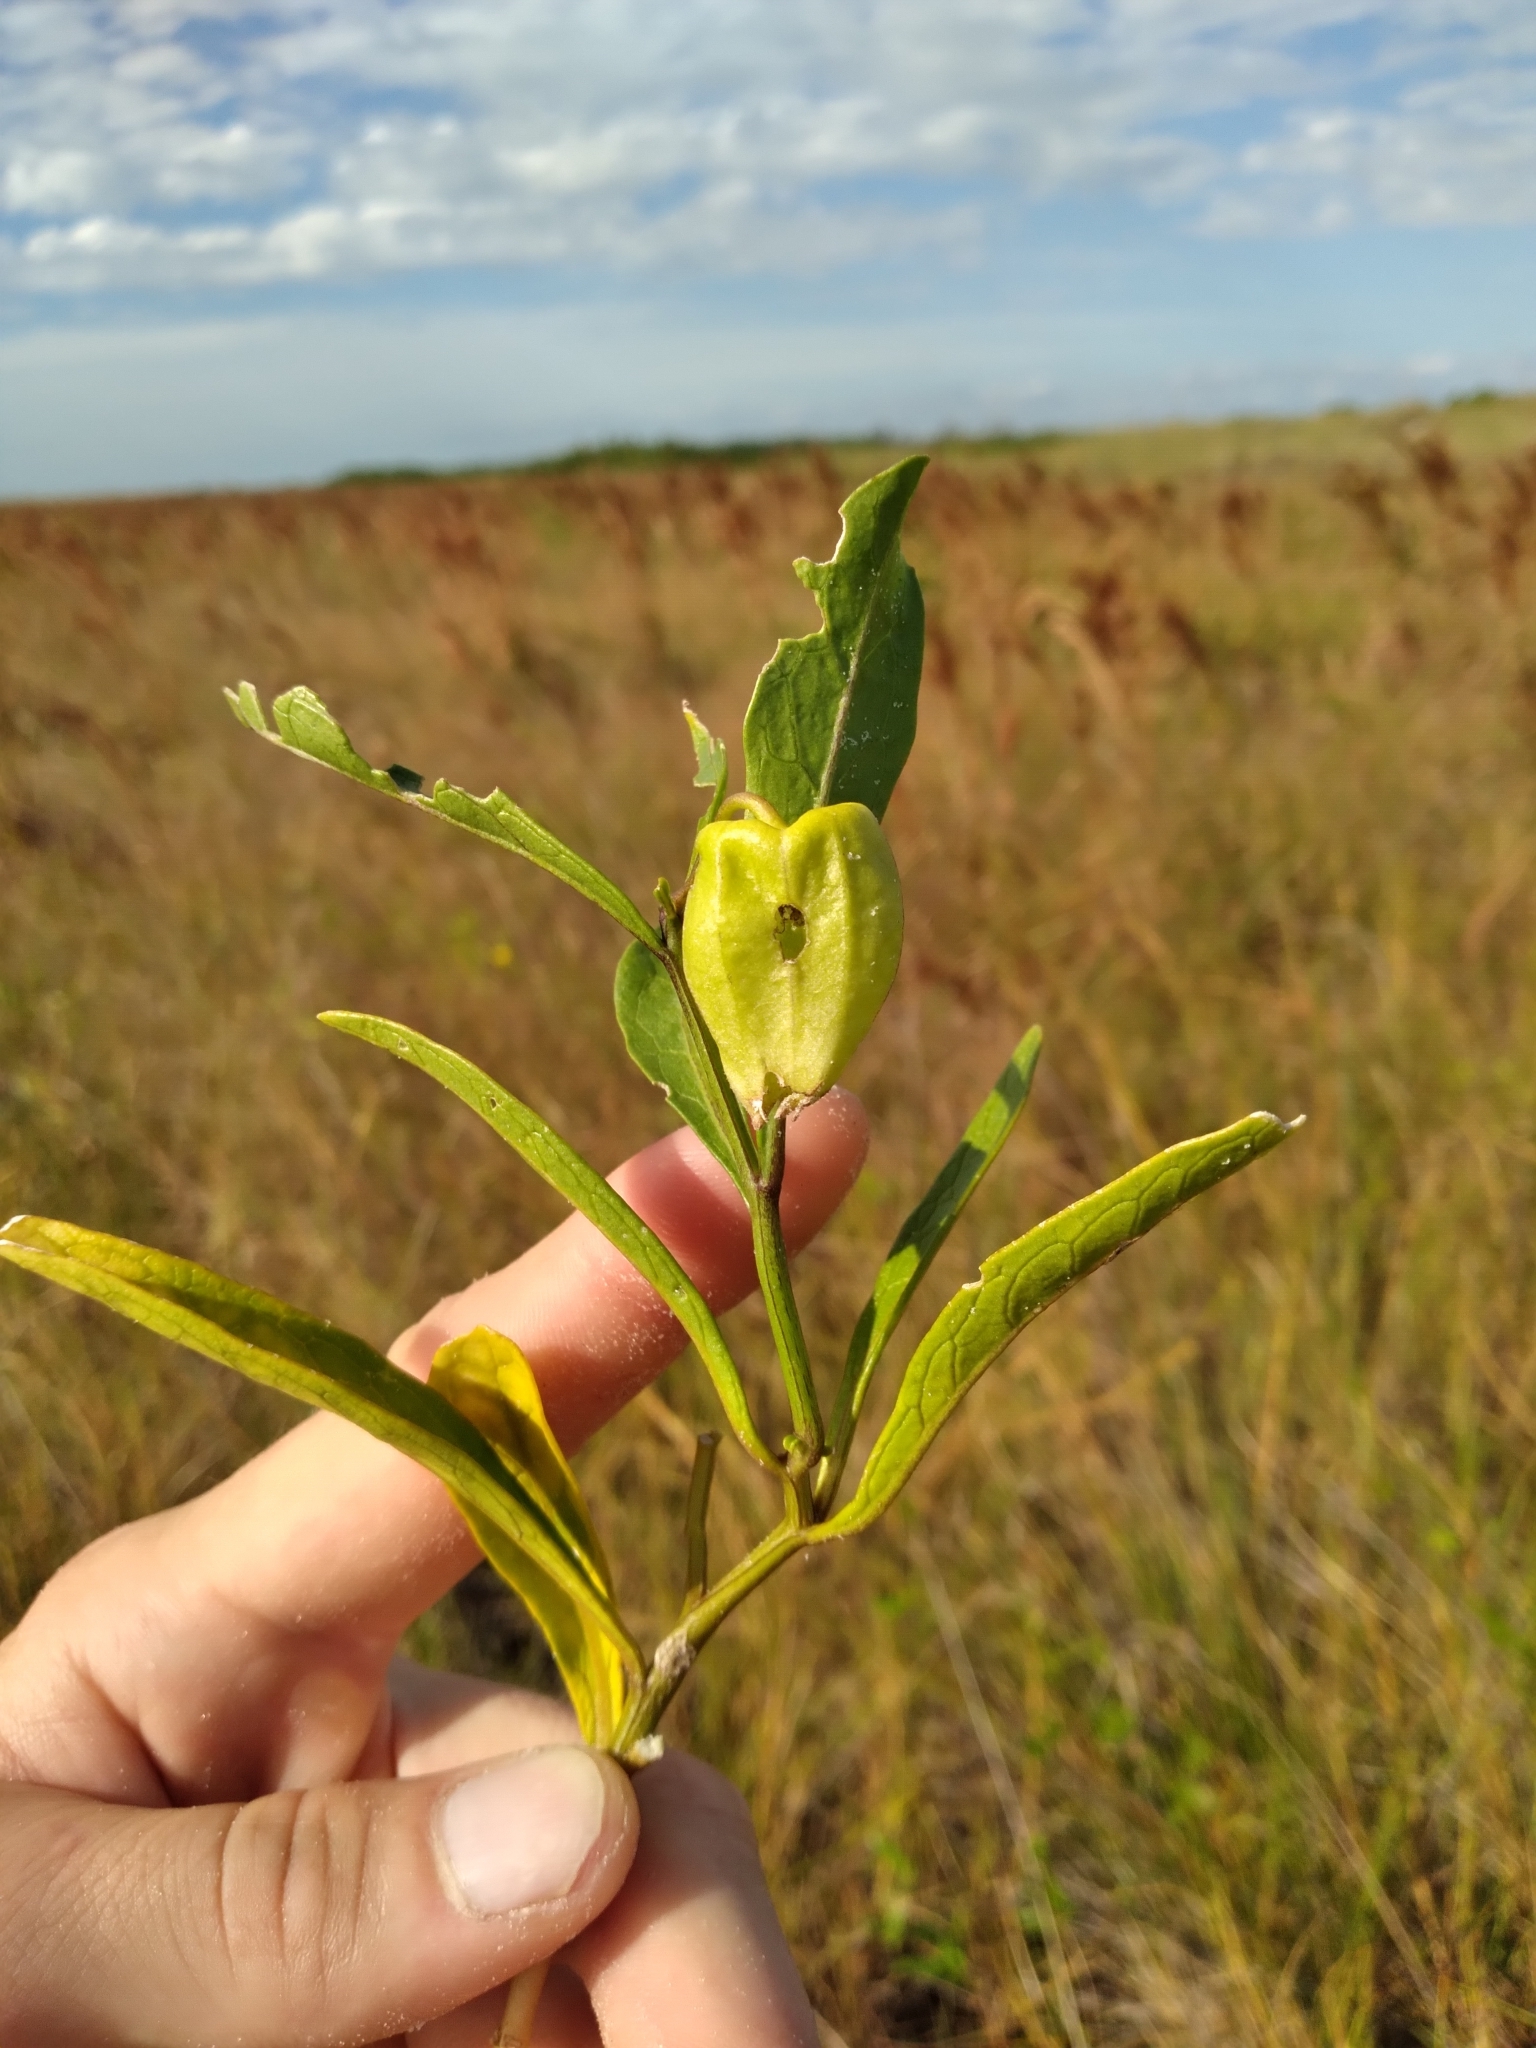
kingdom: Plantae
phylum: Tracheophyta
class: Magnoliopsida
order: Solanales
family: Solanaceae
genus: Physalis
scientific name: Physalis angustifolia
